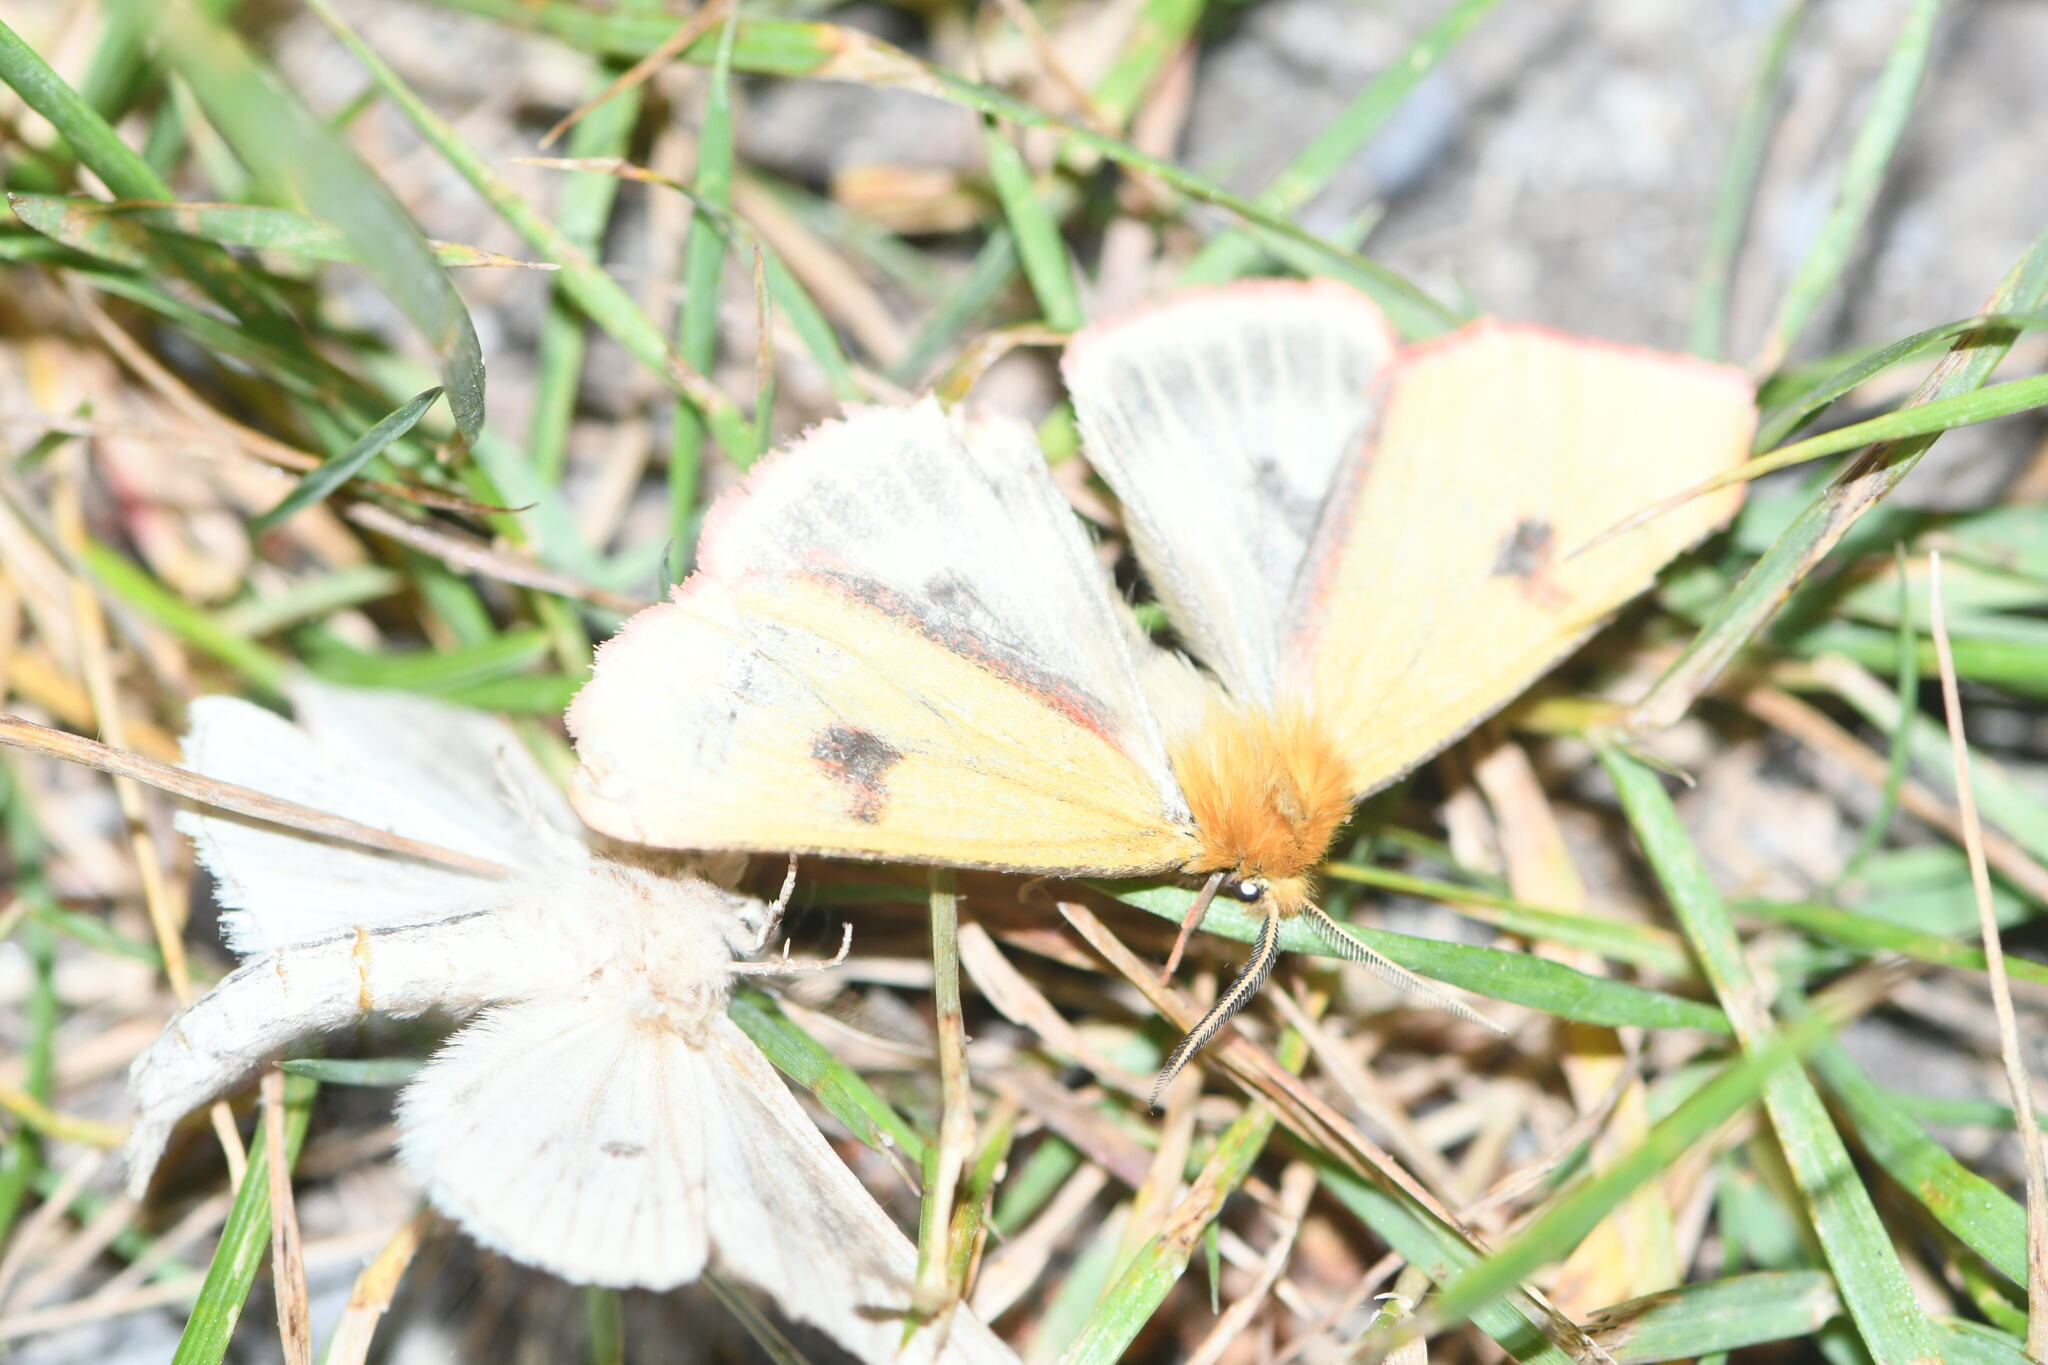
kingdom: Animalia
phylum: Arthropoda
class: Insecta
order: Lepidoptera
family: Erebidae
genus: Diacrisia
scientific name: Diacrisia sannio
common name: Clouded buff
